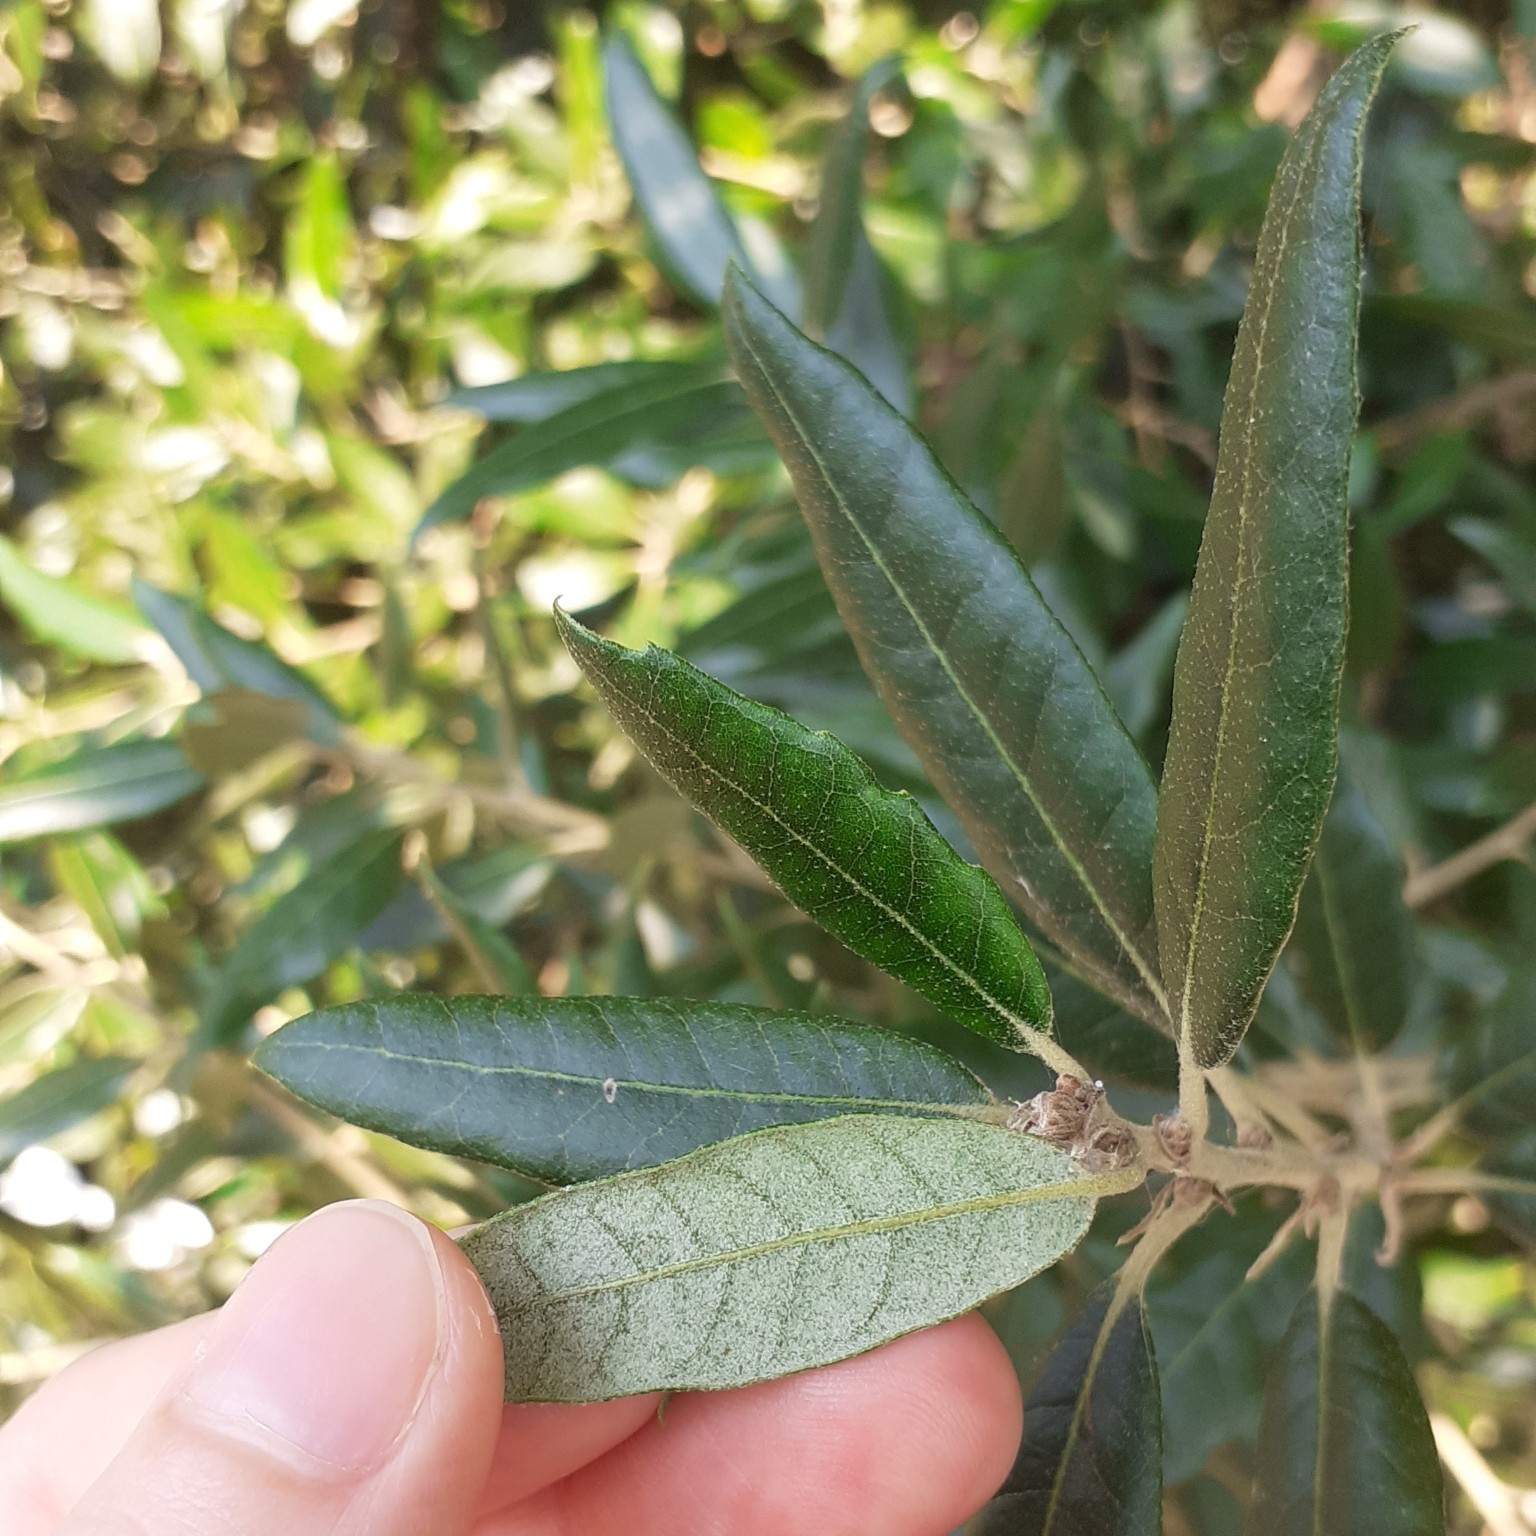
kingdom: Plantae
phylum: Tracheophyta
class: Magnoliopsida
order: Fagales
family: Fagaceae
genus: Quercus
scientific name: Quercus ilex
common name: Evergreen oak
